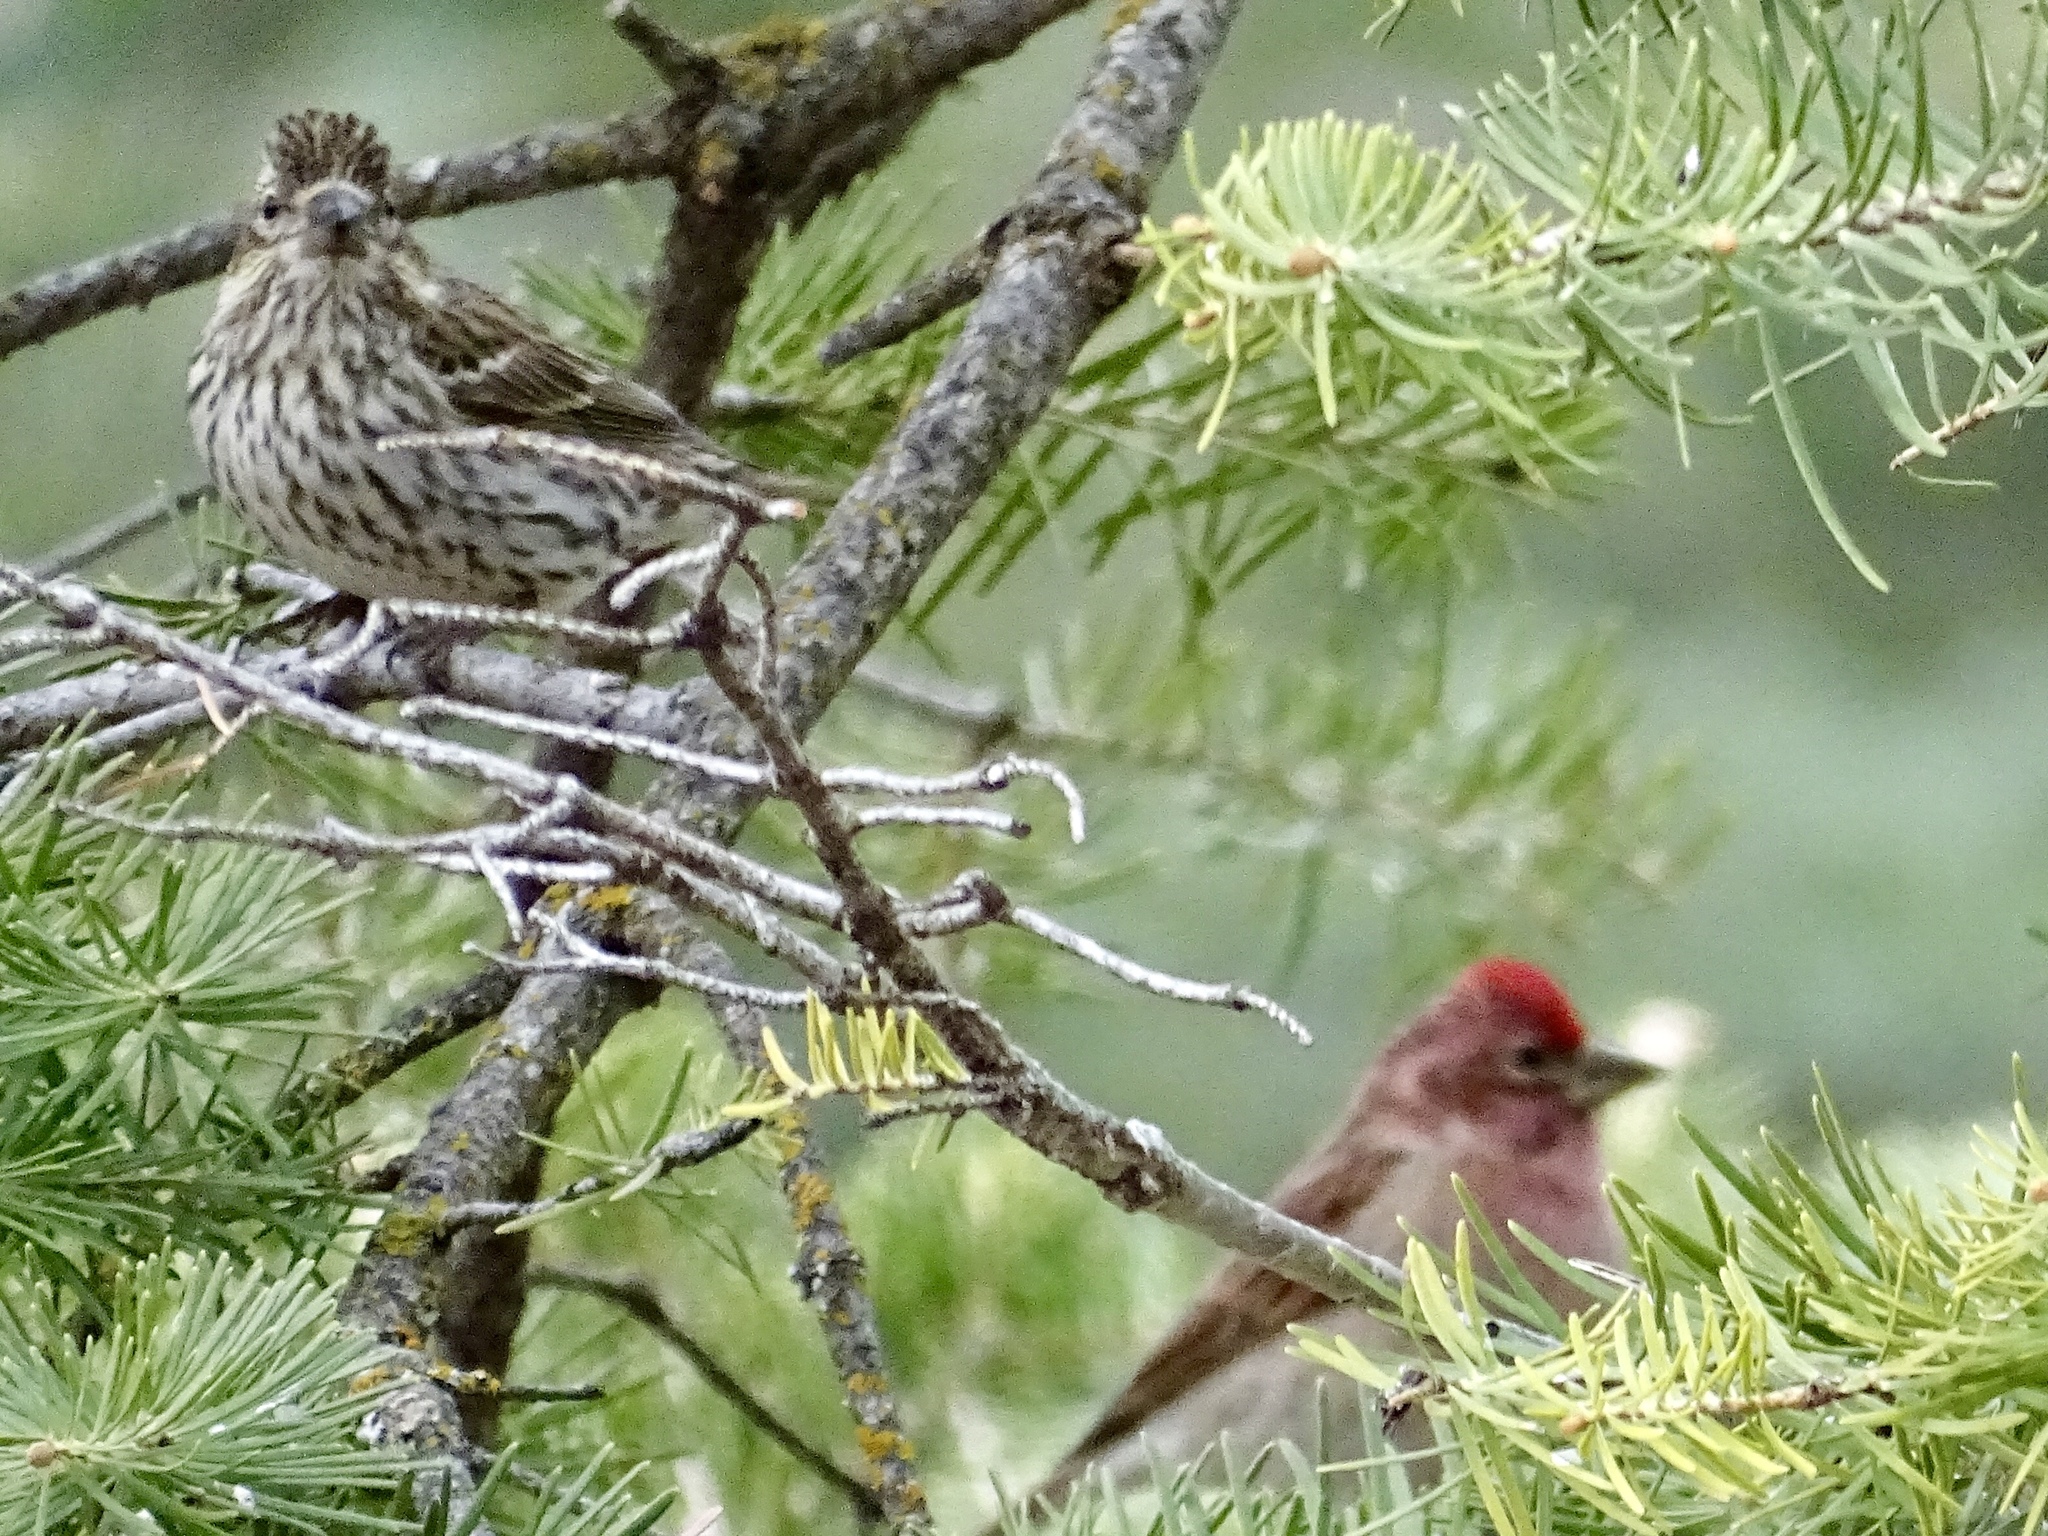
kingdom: Animalia
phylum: Chordata
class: Aves
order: Passeriformes
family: Fringillidae
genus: Haemorhous
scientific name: Haemorhous cassinii
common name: Cassin's finch
